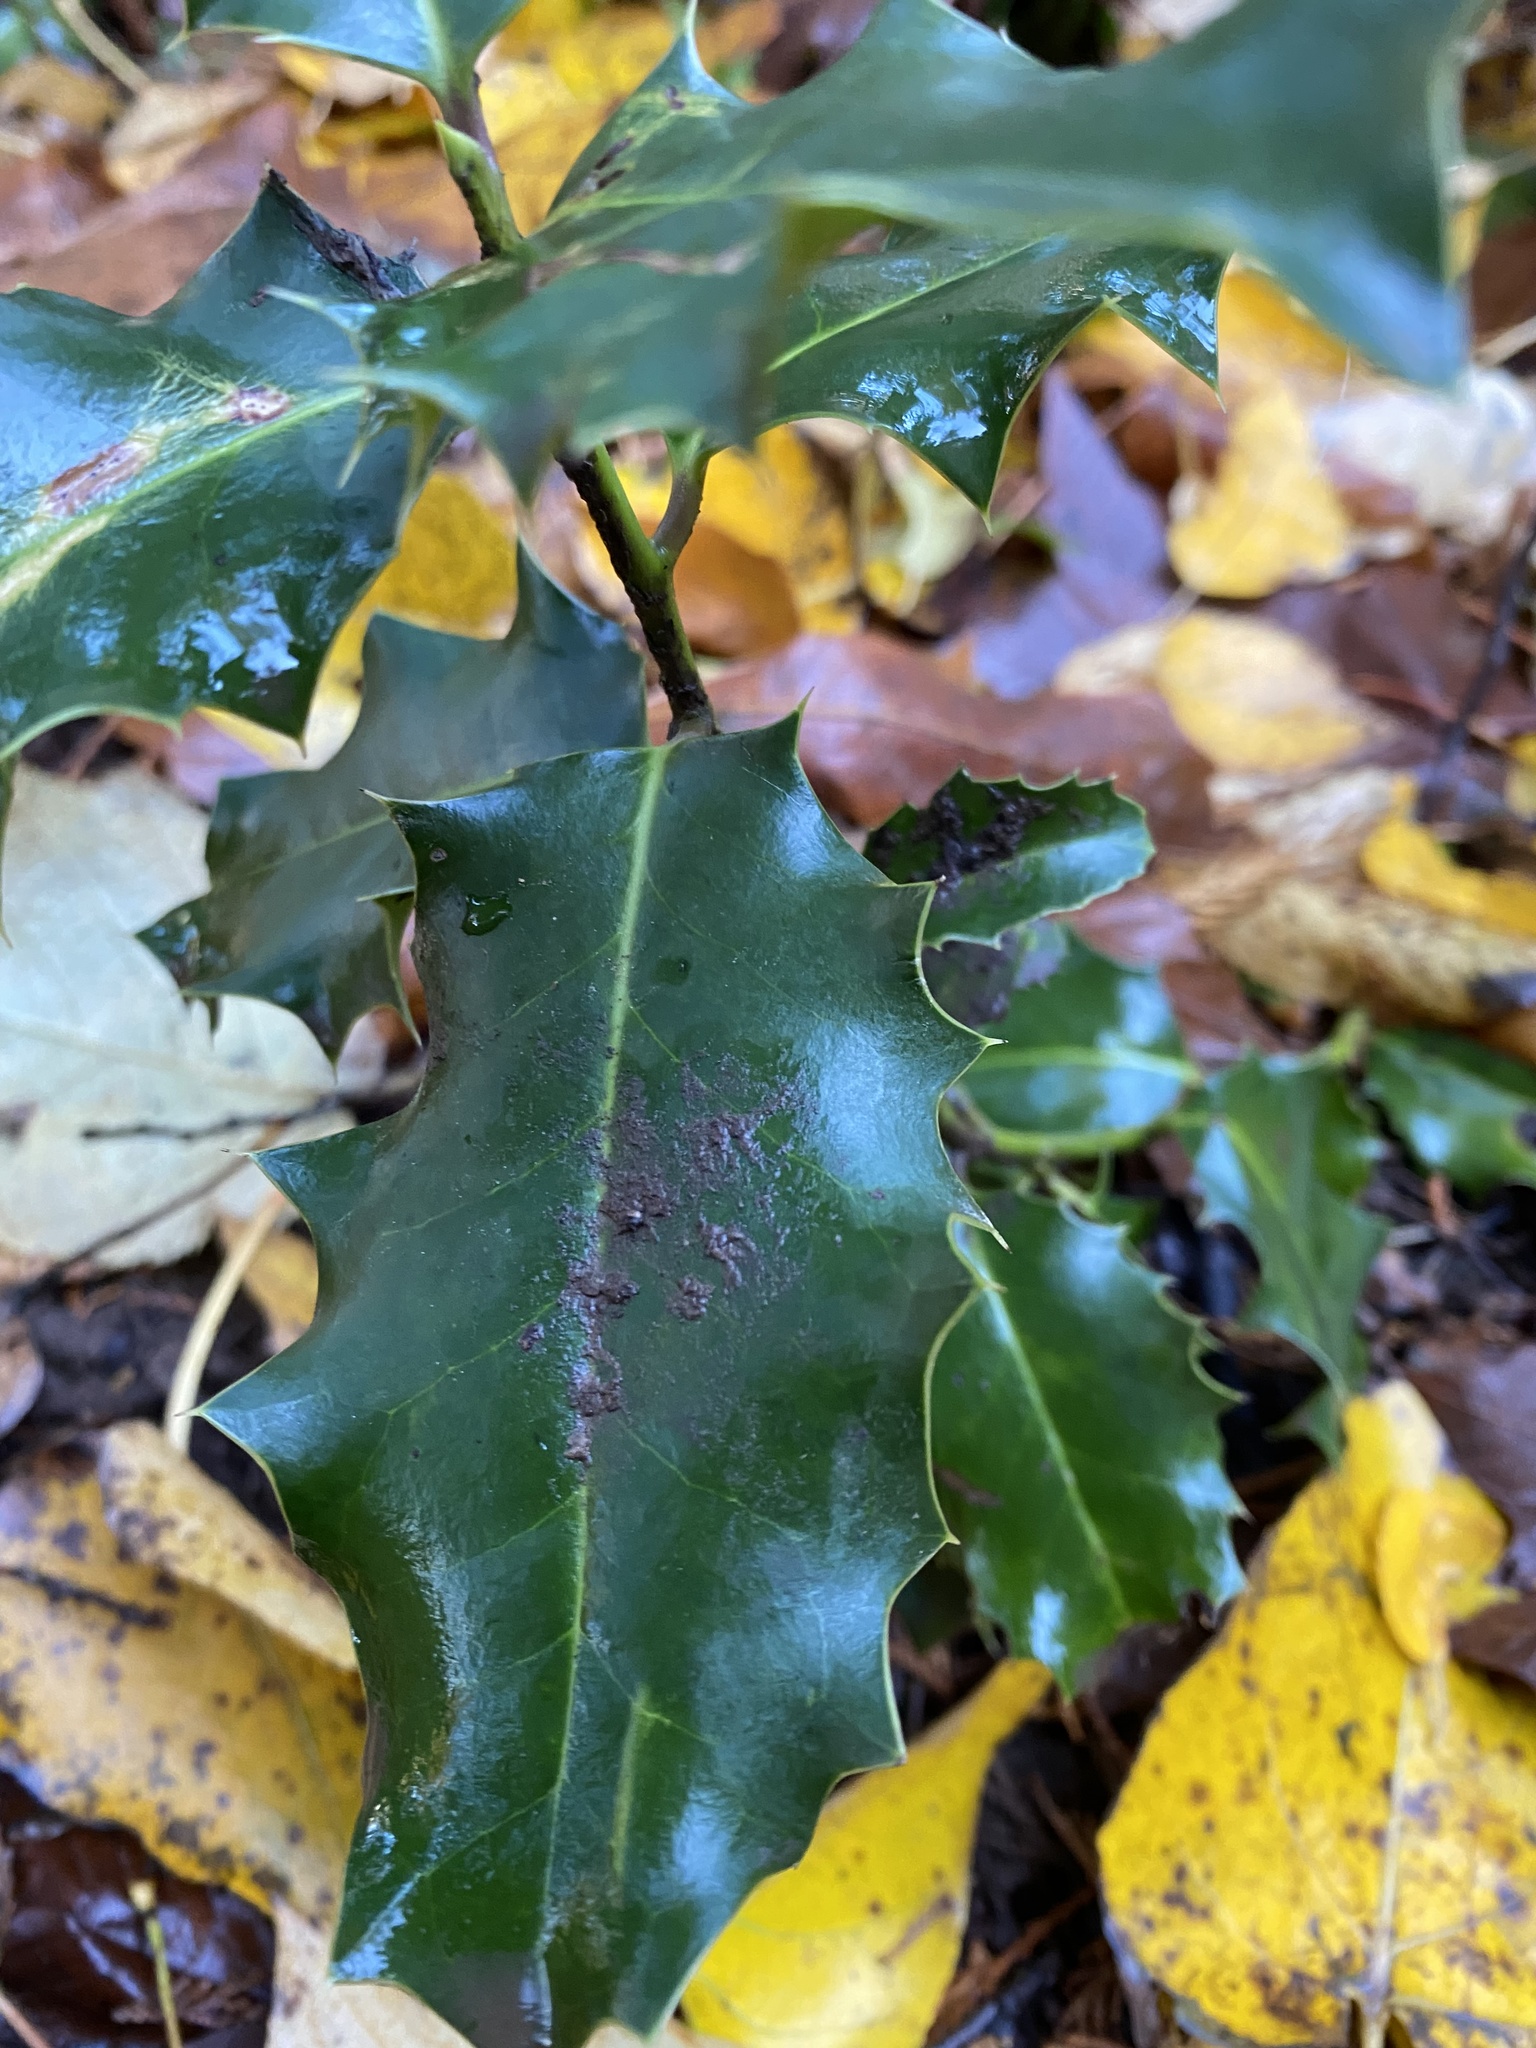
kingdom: Plantae
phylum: Tracheophyta
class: Magnoliopsida
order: Aquifoliales
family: Aquifoliaceae
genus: Ilex
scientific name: Ilex aquifolium
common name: English holly
